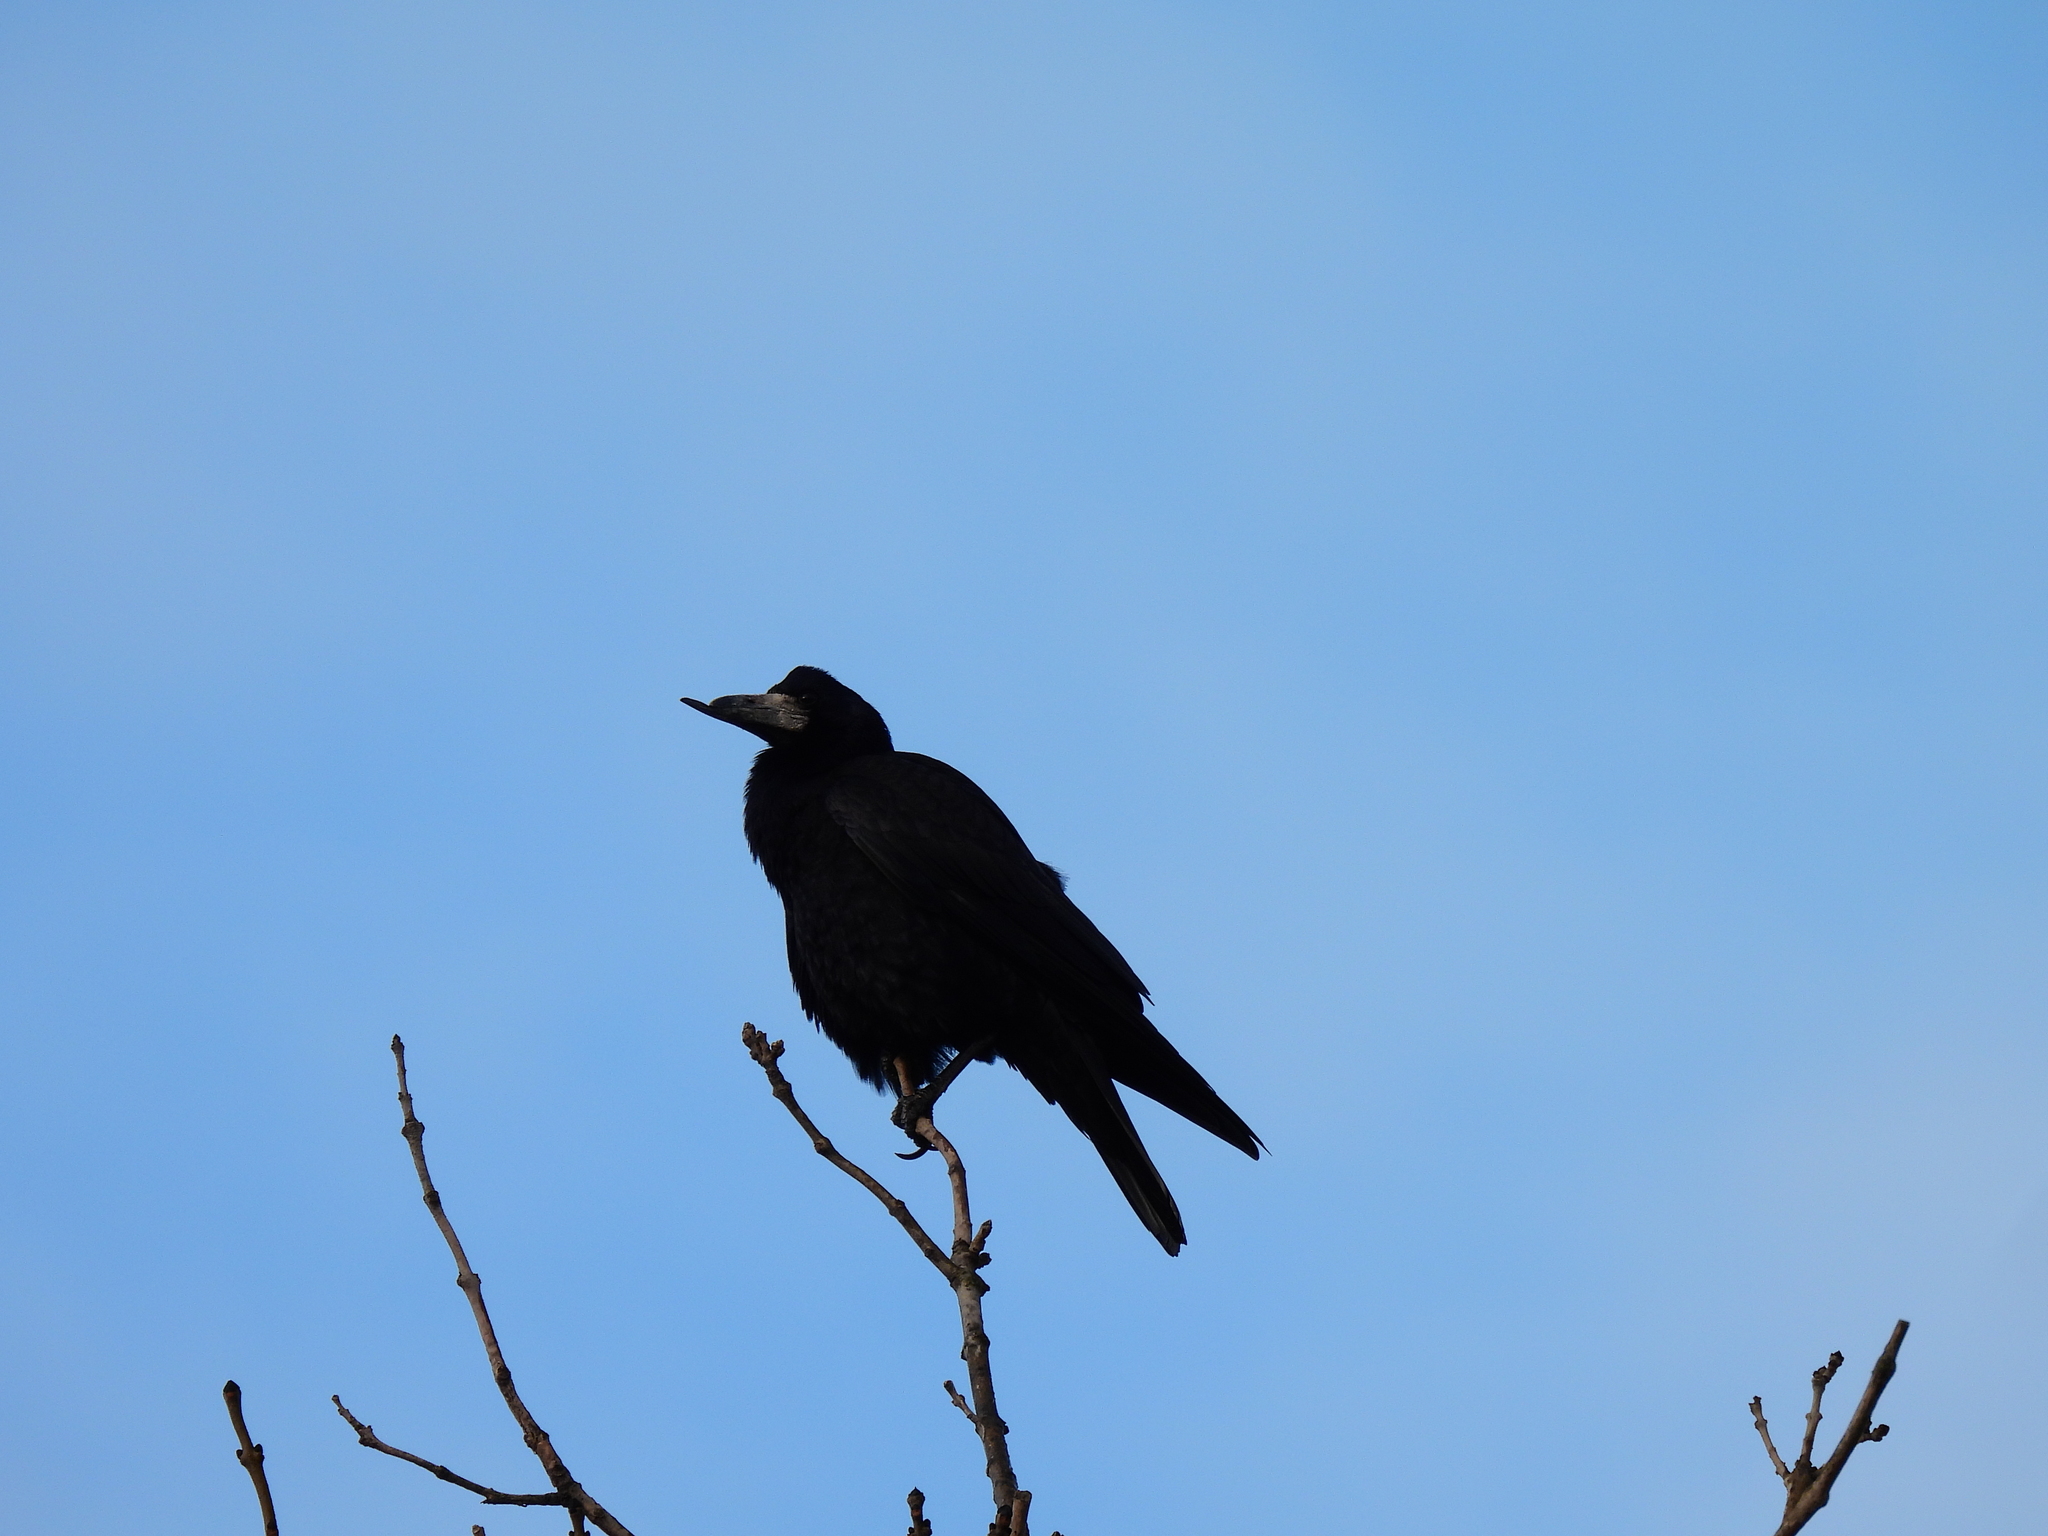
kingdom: Animalia
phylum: Chordata
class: Aves
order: Passeriformes
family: Corvidae
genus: Corvus
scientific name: Corvus frugilegus
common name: Rook
